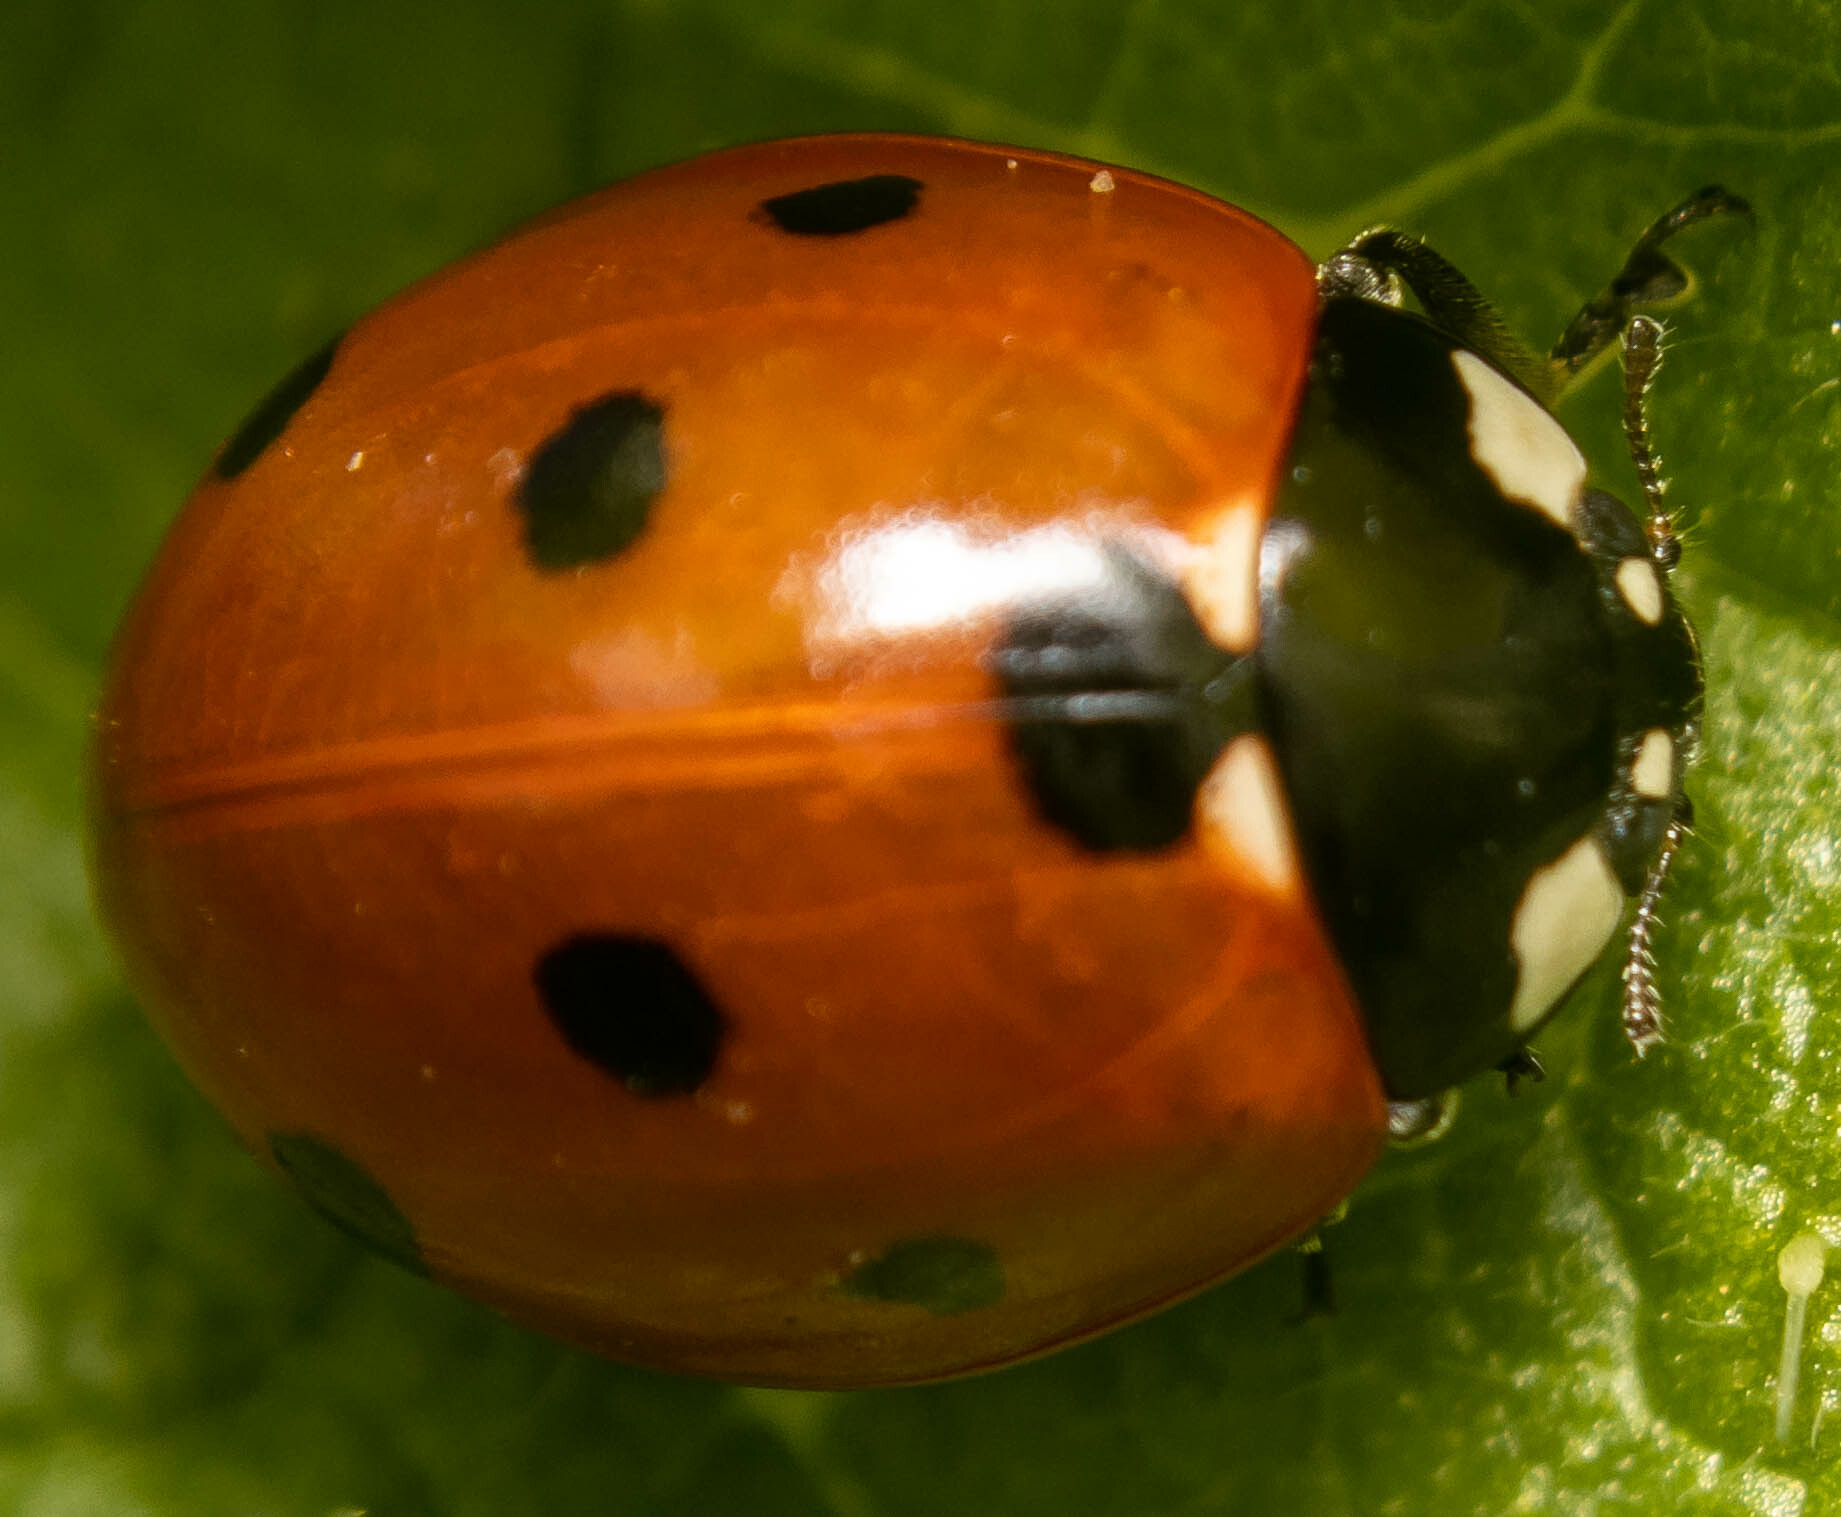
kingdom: Animalia
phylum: Arthropoda
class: Insecta
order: Coleoptera
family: Coccinellidae
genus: Coccinella
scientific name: Coccinella septempunctata
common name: Sevenspotted lady beetle
